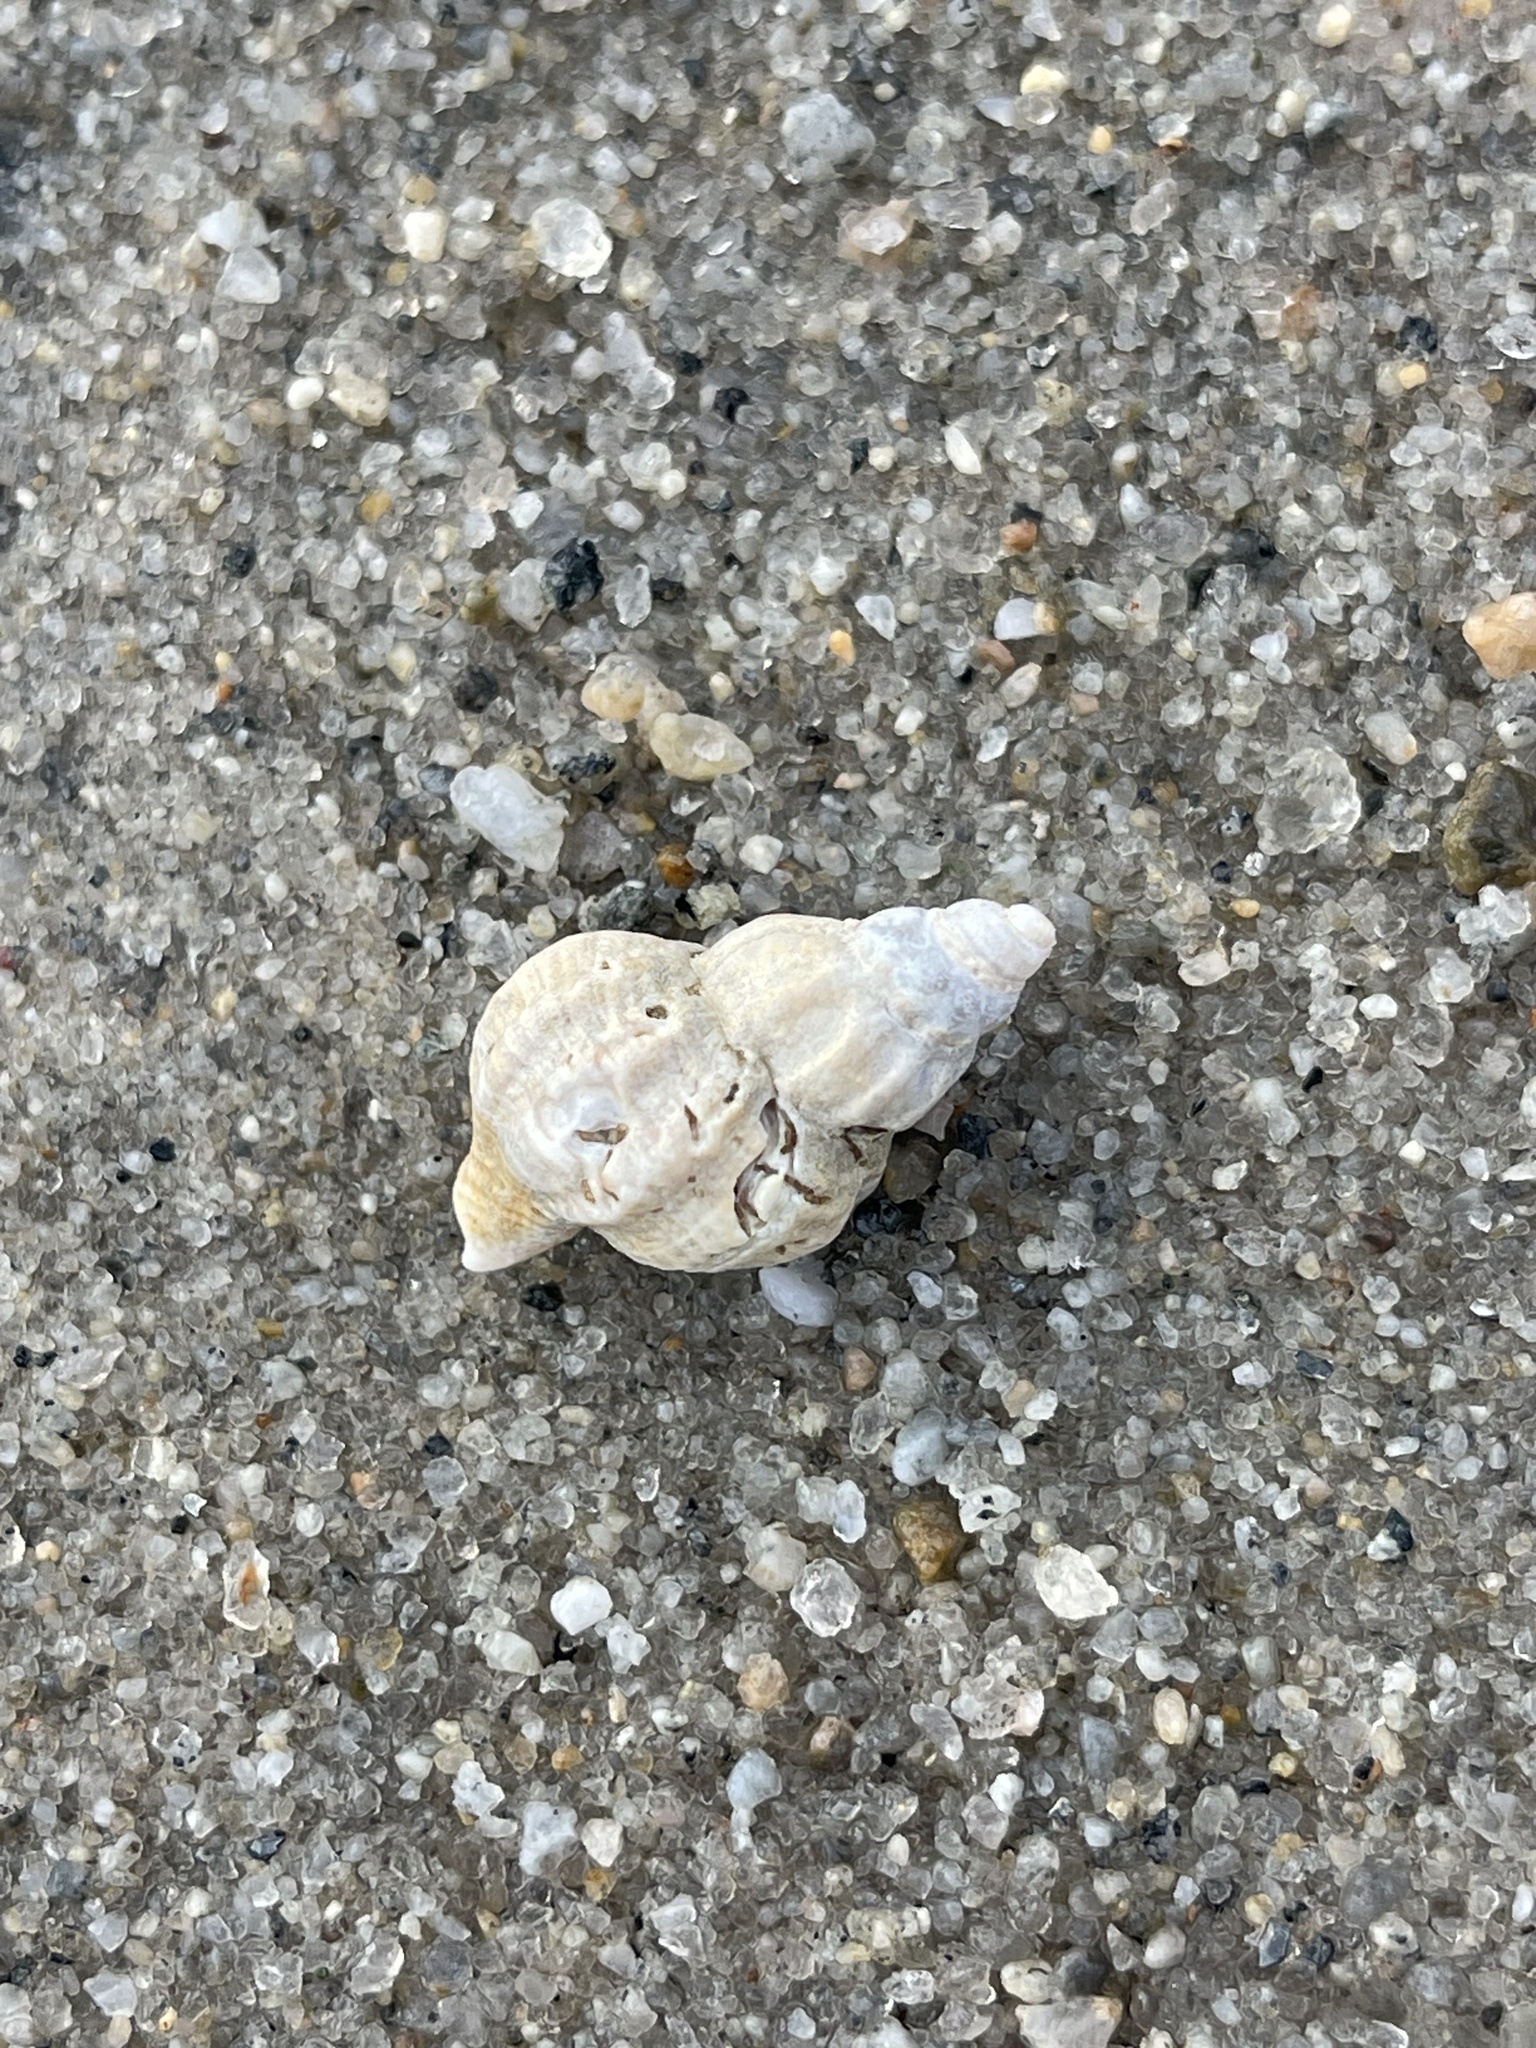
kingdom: Animalia
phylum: Mollusca
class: Gastropoda
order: Neogastropoda
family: Muricidae
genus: Urosalpinx
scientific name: Urosalpinx cinerea
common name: American sting winkle
